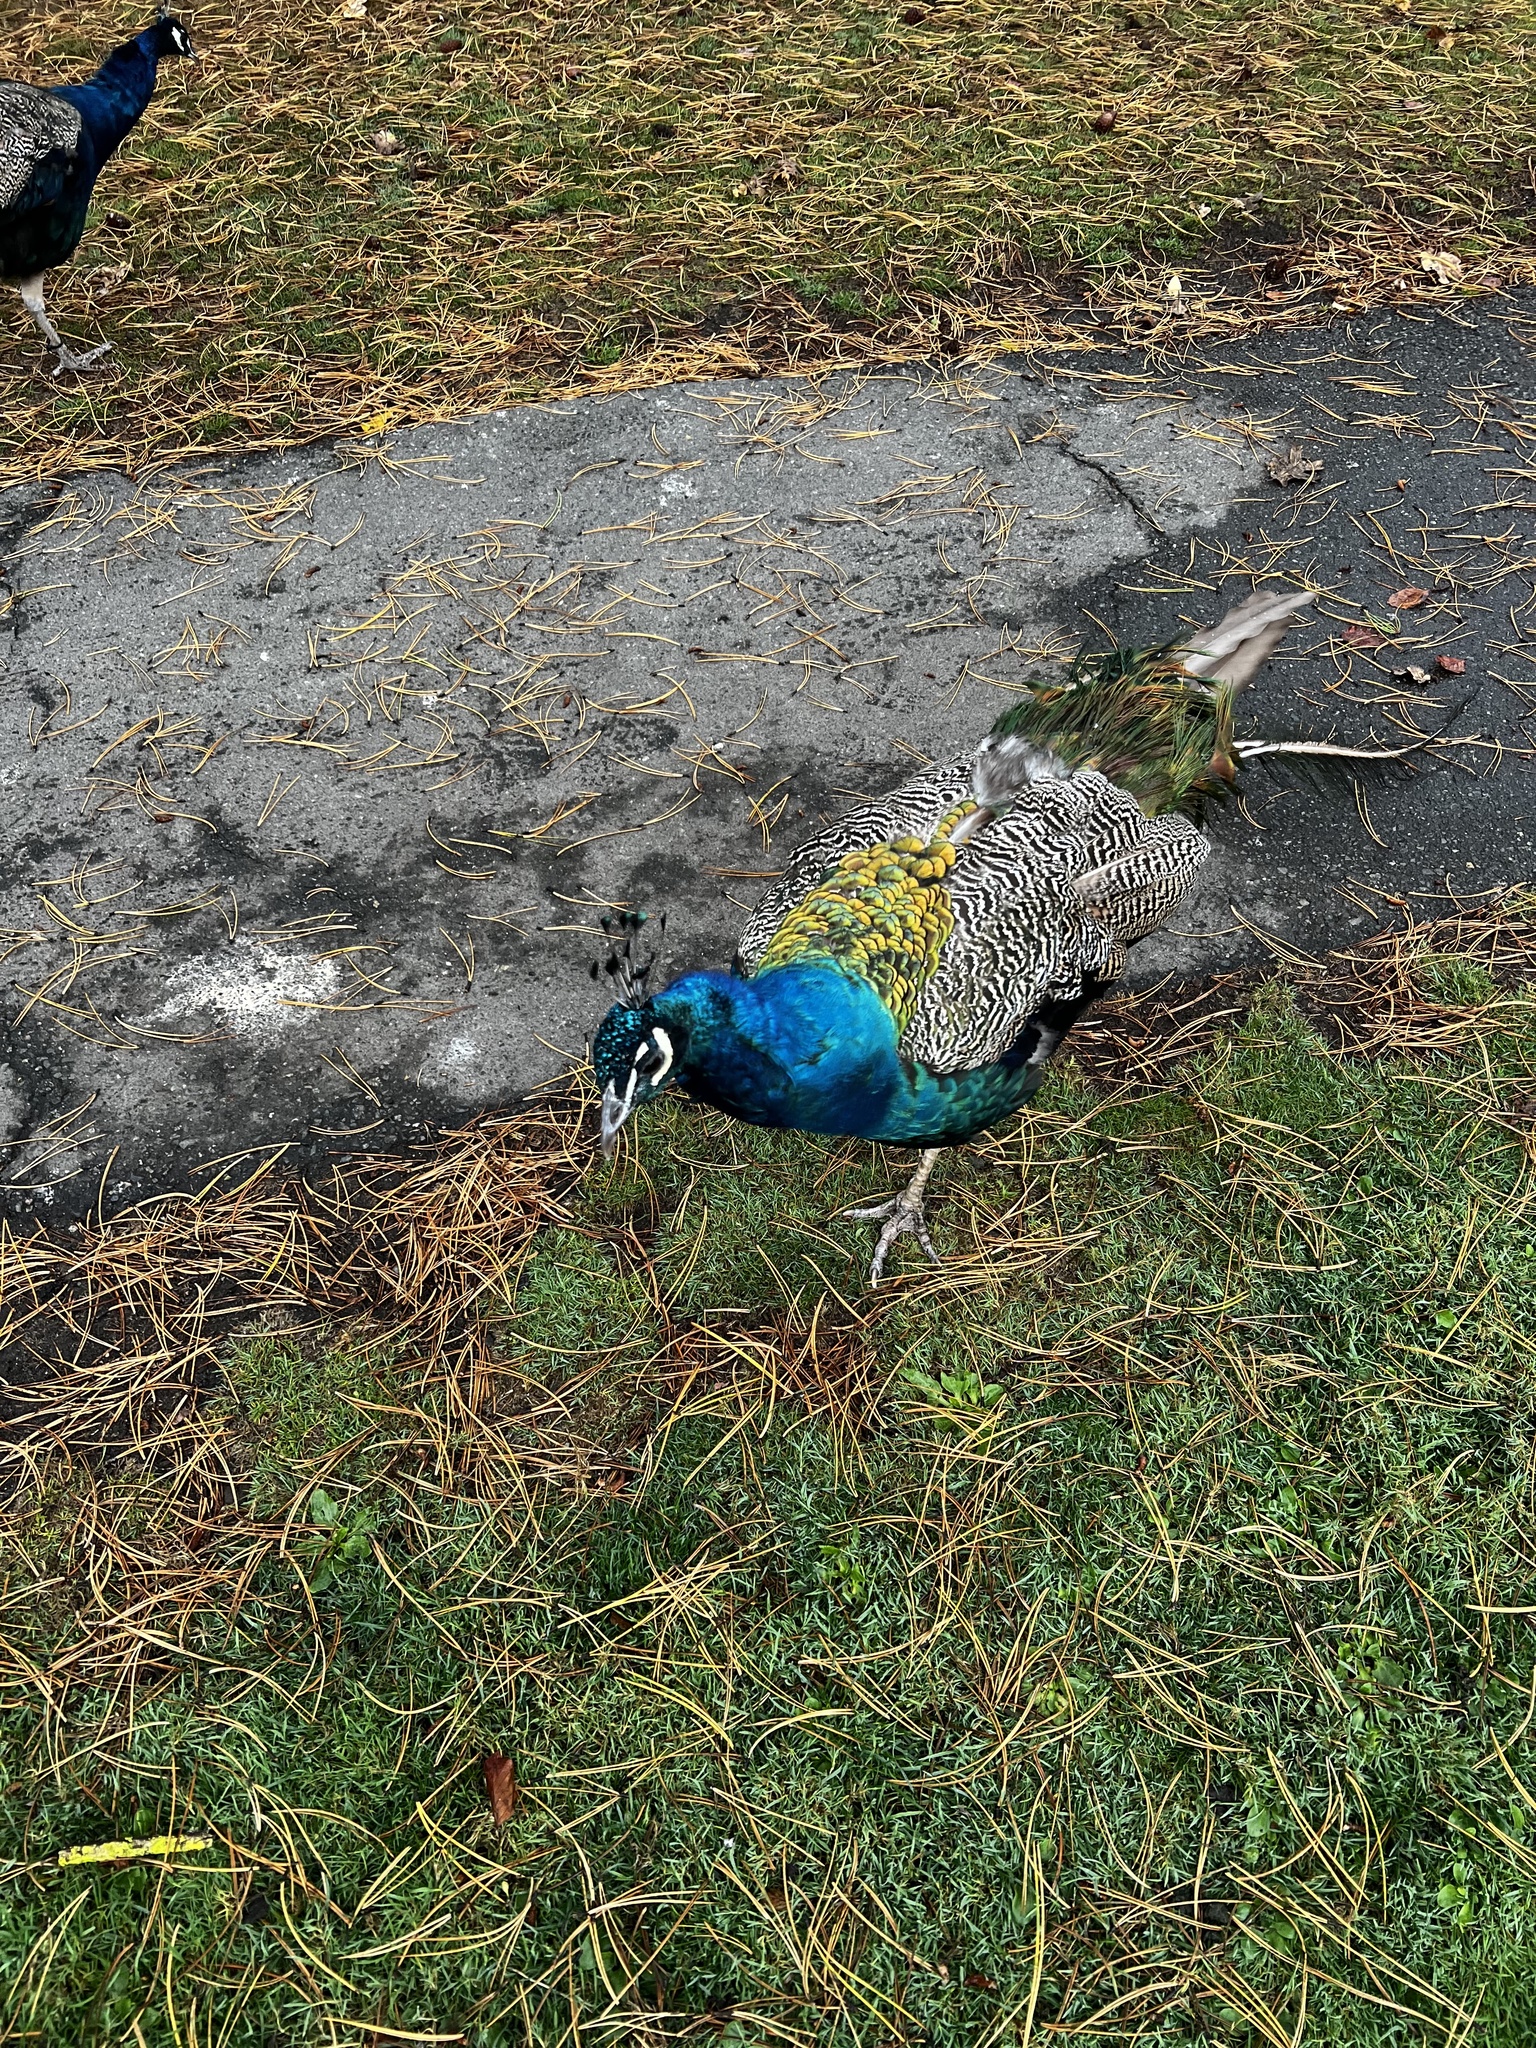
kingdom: Animalia
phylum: Chordata
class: Aves
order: Galliformes
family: Phasianidae
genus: Pavo
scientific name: Pavo cristatus
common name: Indian peafowl
